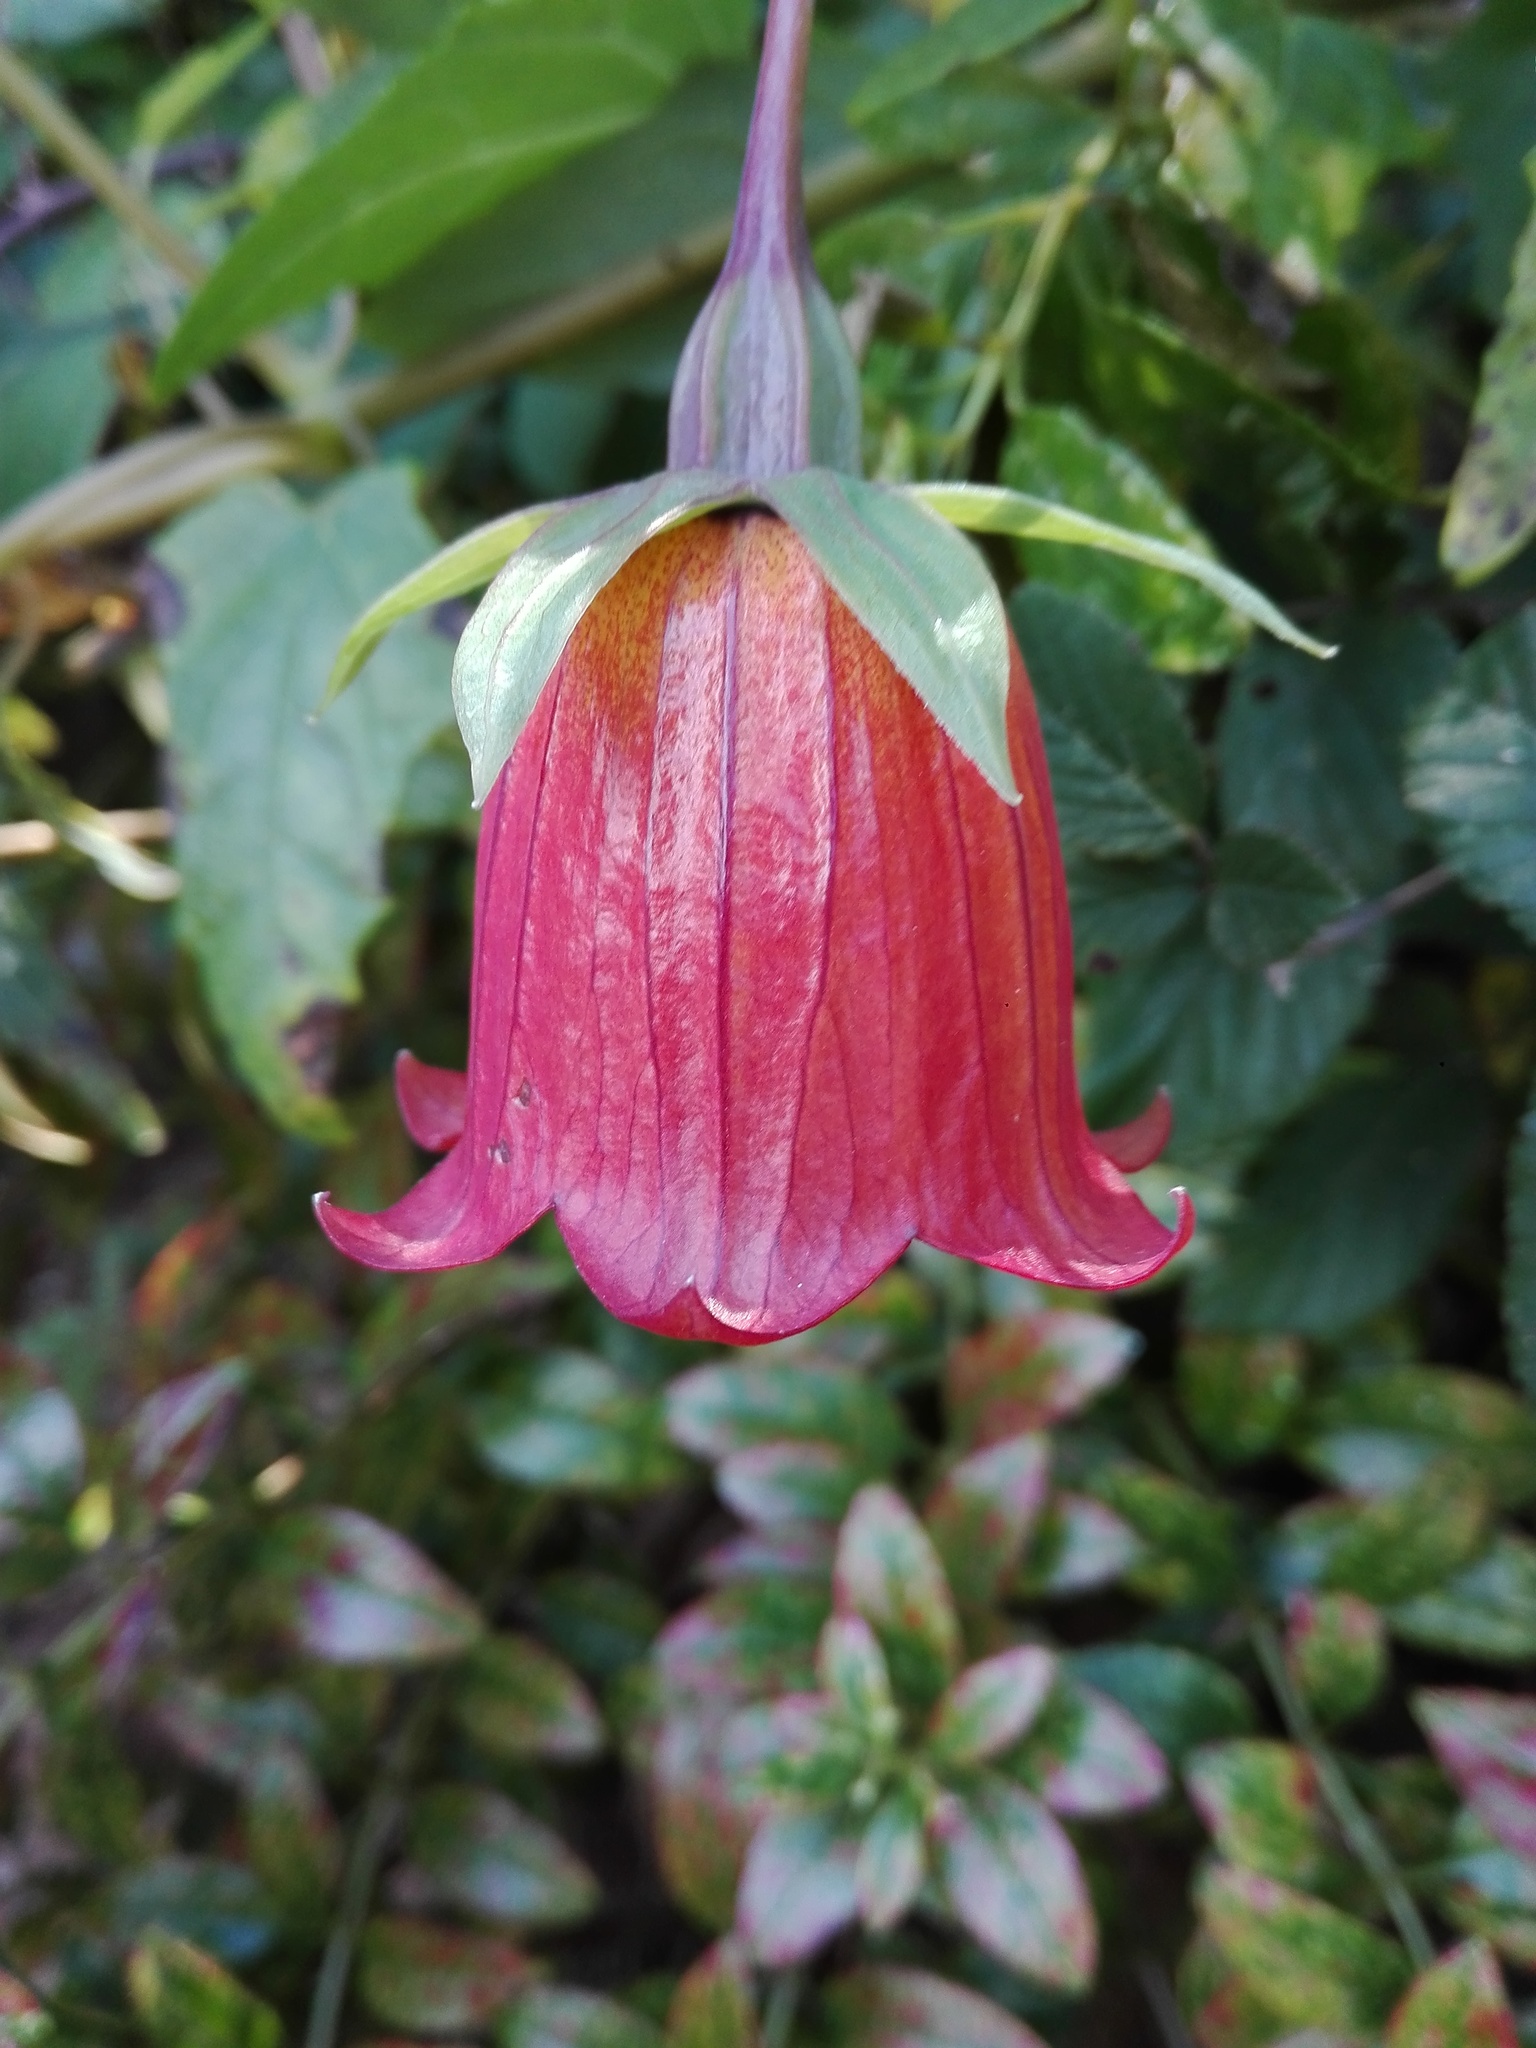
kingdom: Plantae
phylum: Tracheophyta
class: Magnoliopsida
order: Asterales
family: Campanulaceae
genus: Canarina
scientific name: Canarina canariensis
